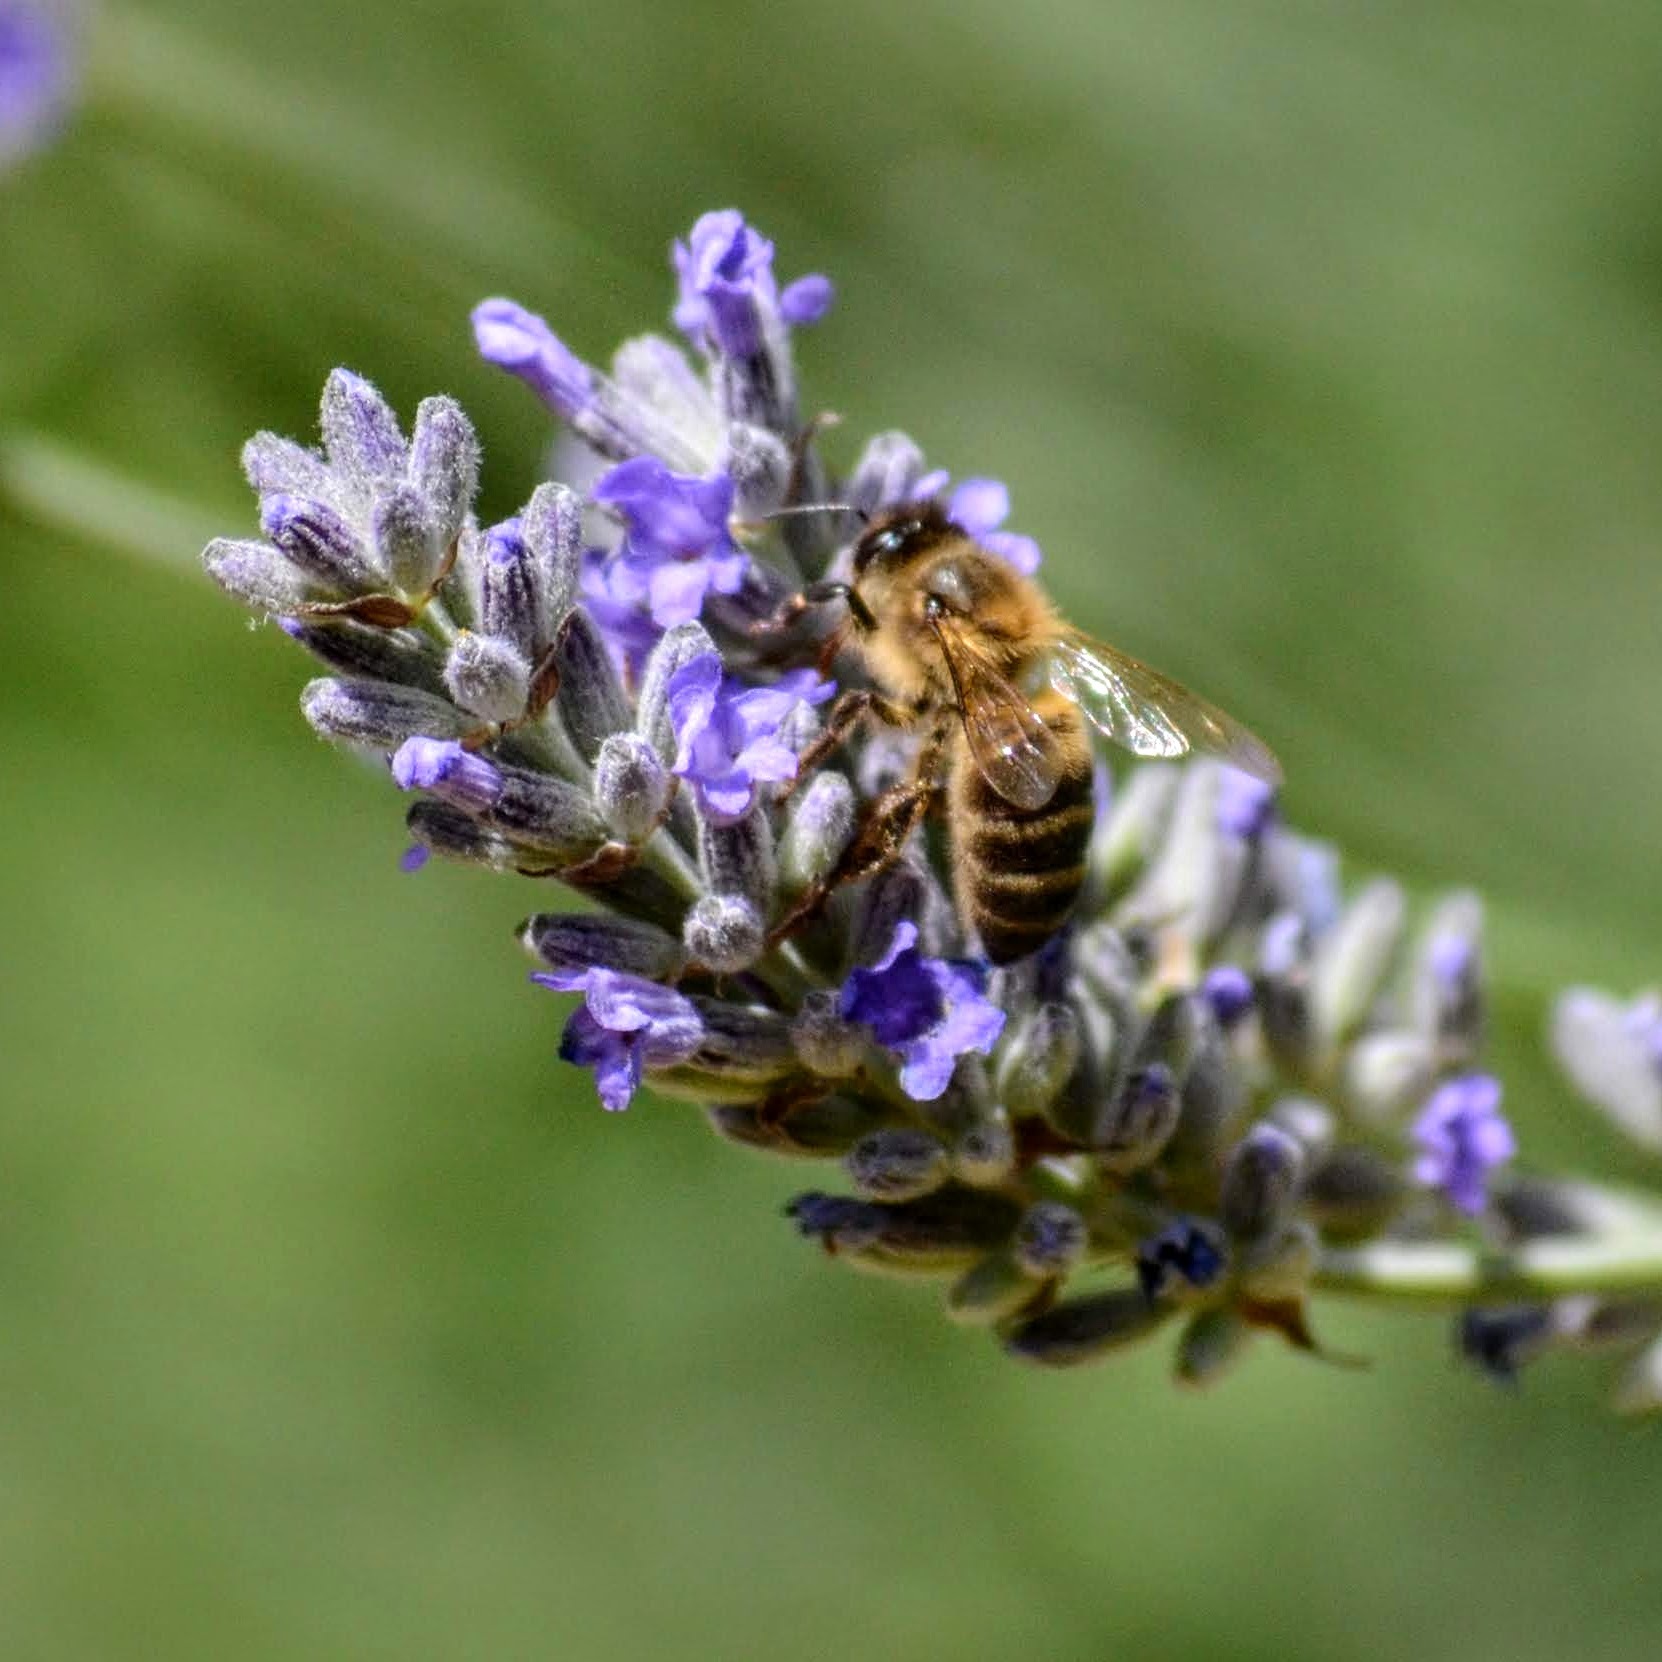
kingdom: Animalia
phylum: Arthropoda
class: Insecta
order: Hymenoptera
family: Apidae
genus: Apis
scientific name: Apis mellifera
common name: Honey bee
